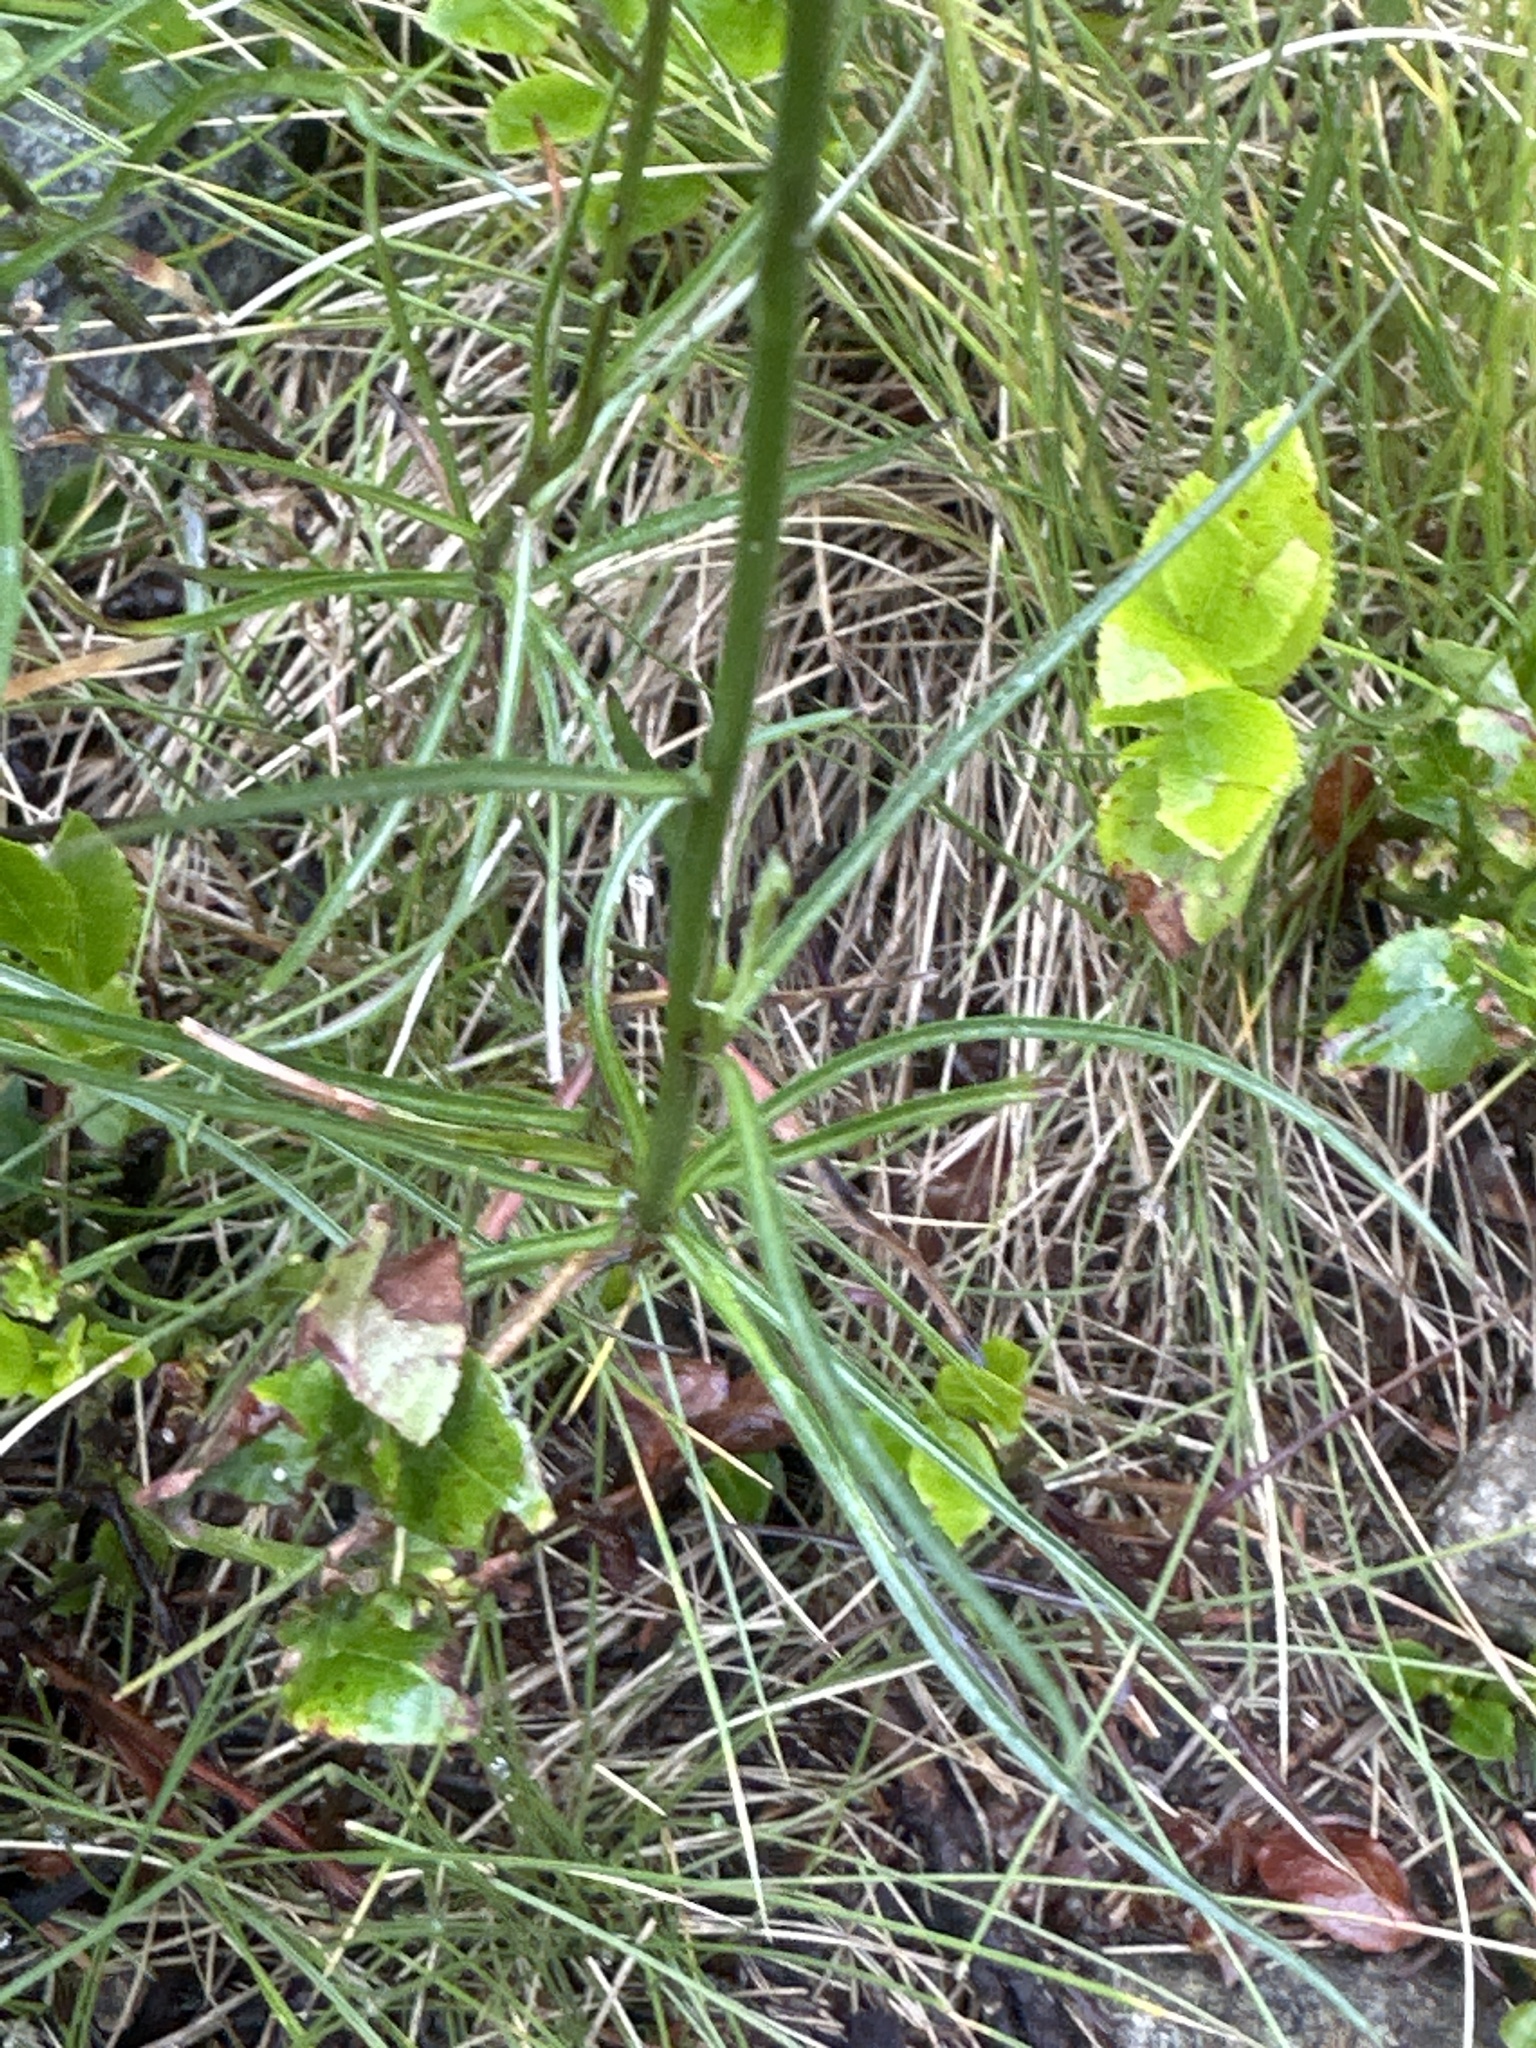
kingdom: Plantae
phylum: Tracheophyta
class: Magnoliopsida
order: Asterales
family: Campanulaceae
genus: Campanula
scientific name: Campanula scheuchzeri
